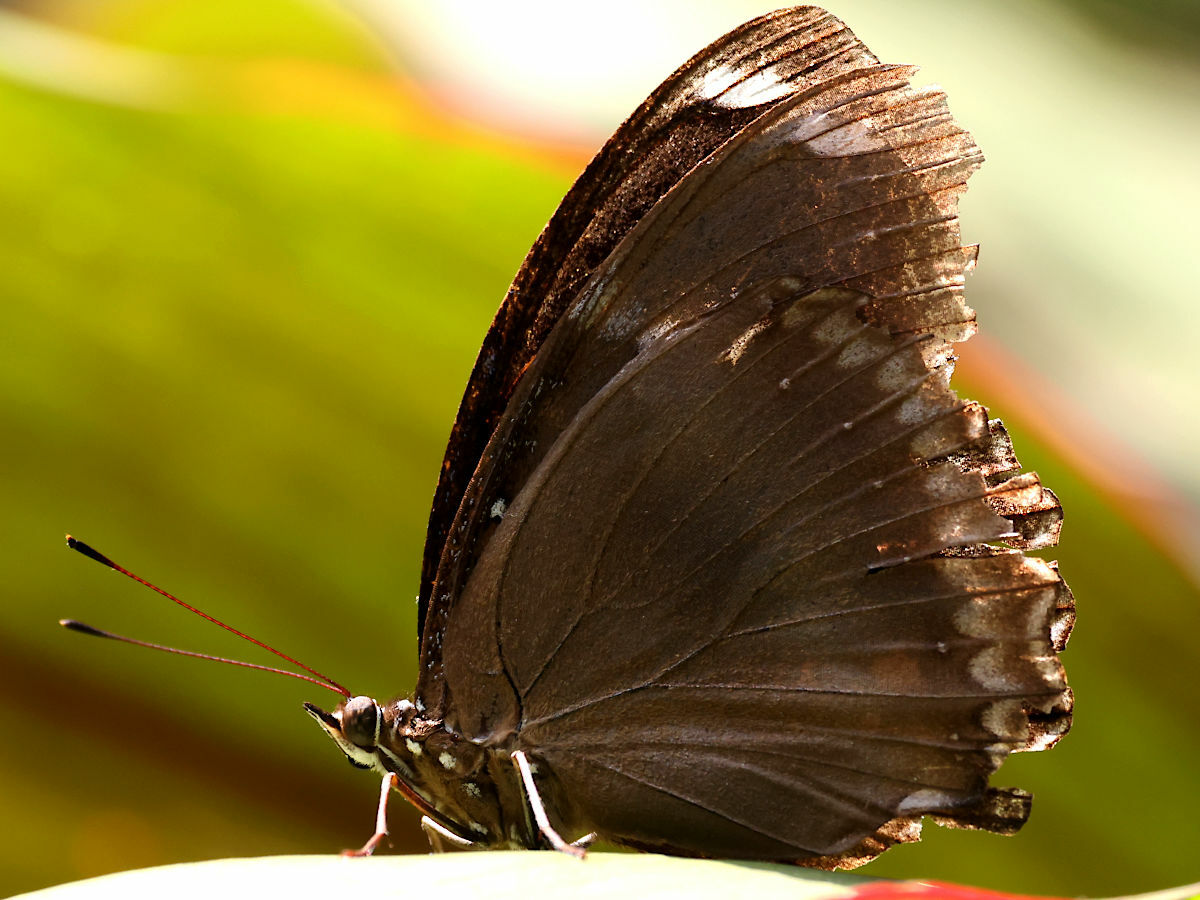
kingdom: Animalia
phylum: Arthropoda
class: Insecta
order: Lepidoptera
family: Nymphalidae
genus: Hypolimnas
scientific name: Hypolimnas bolina
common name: Great eggfly
